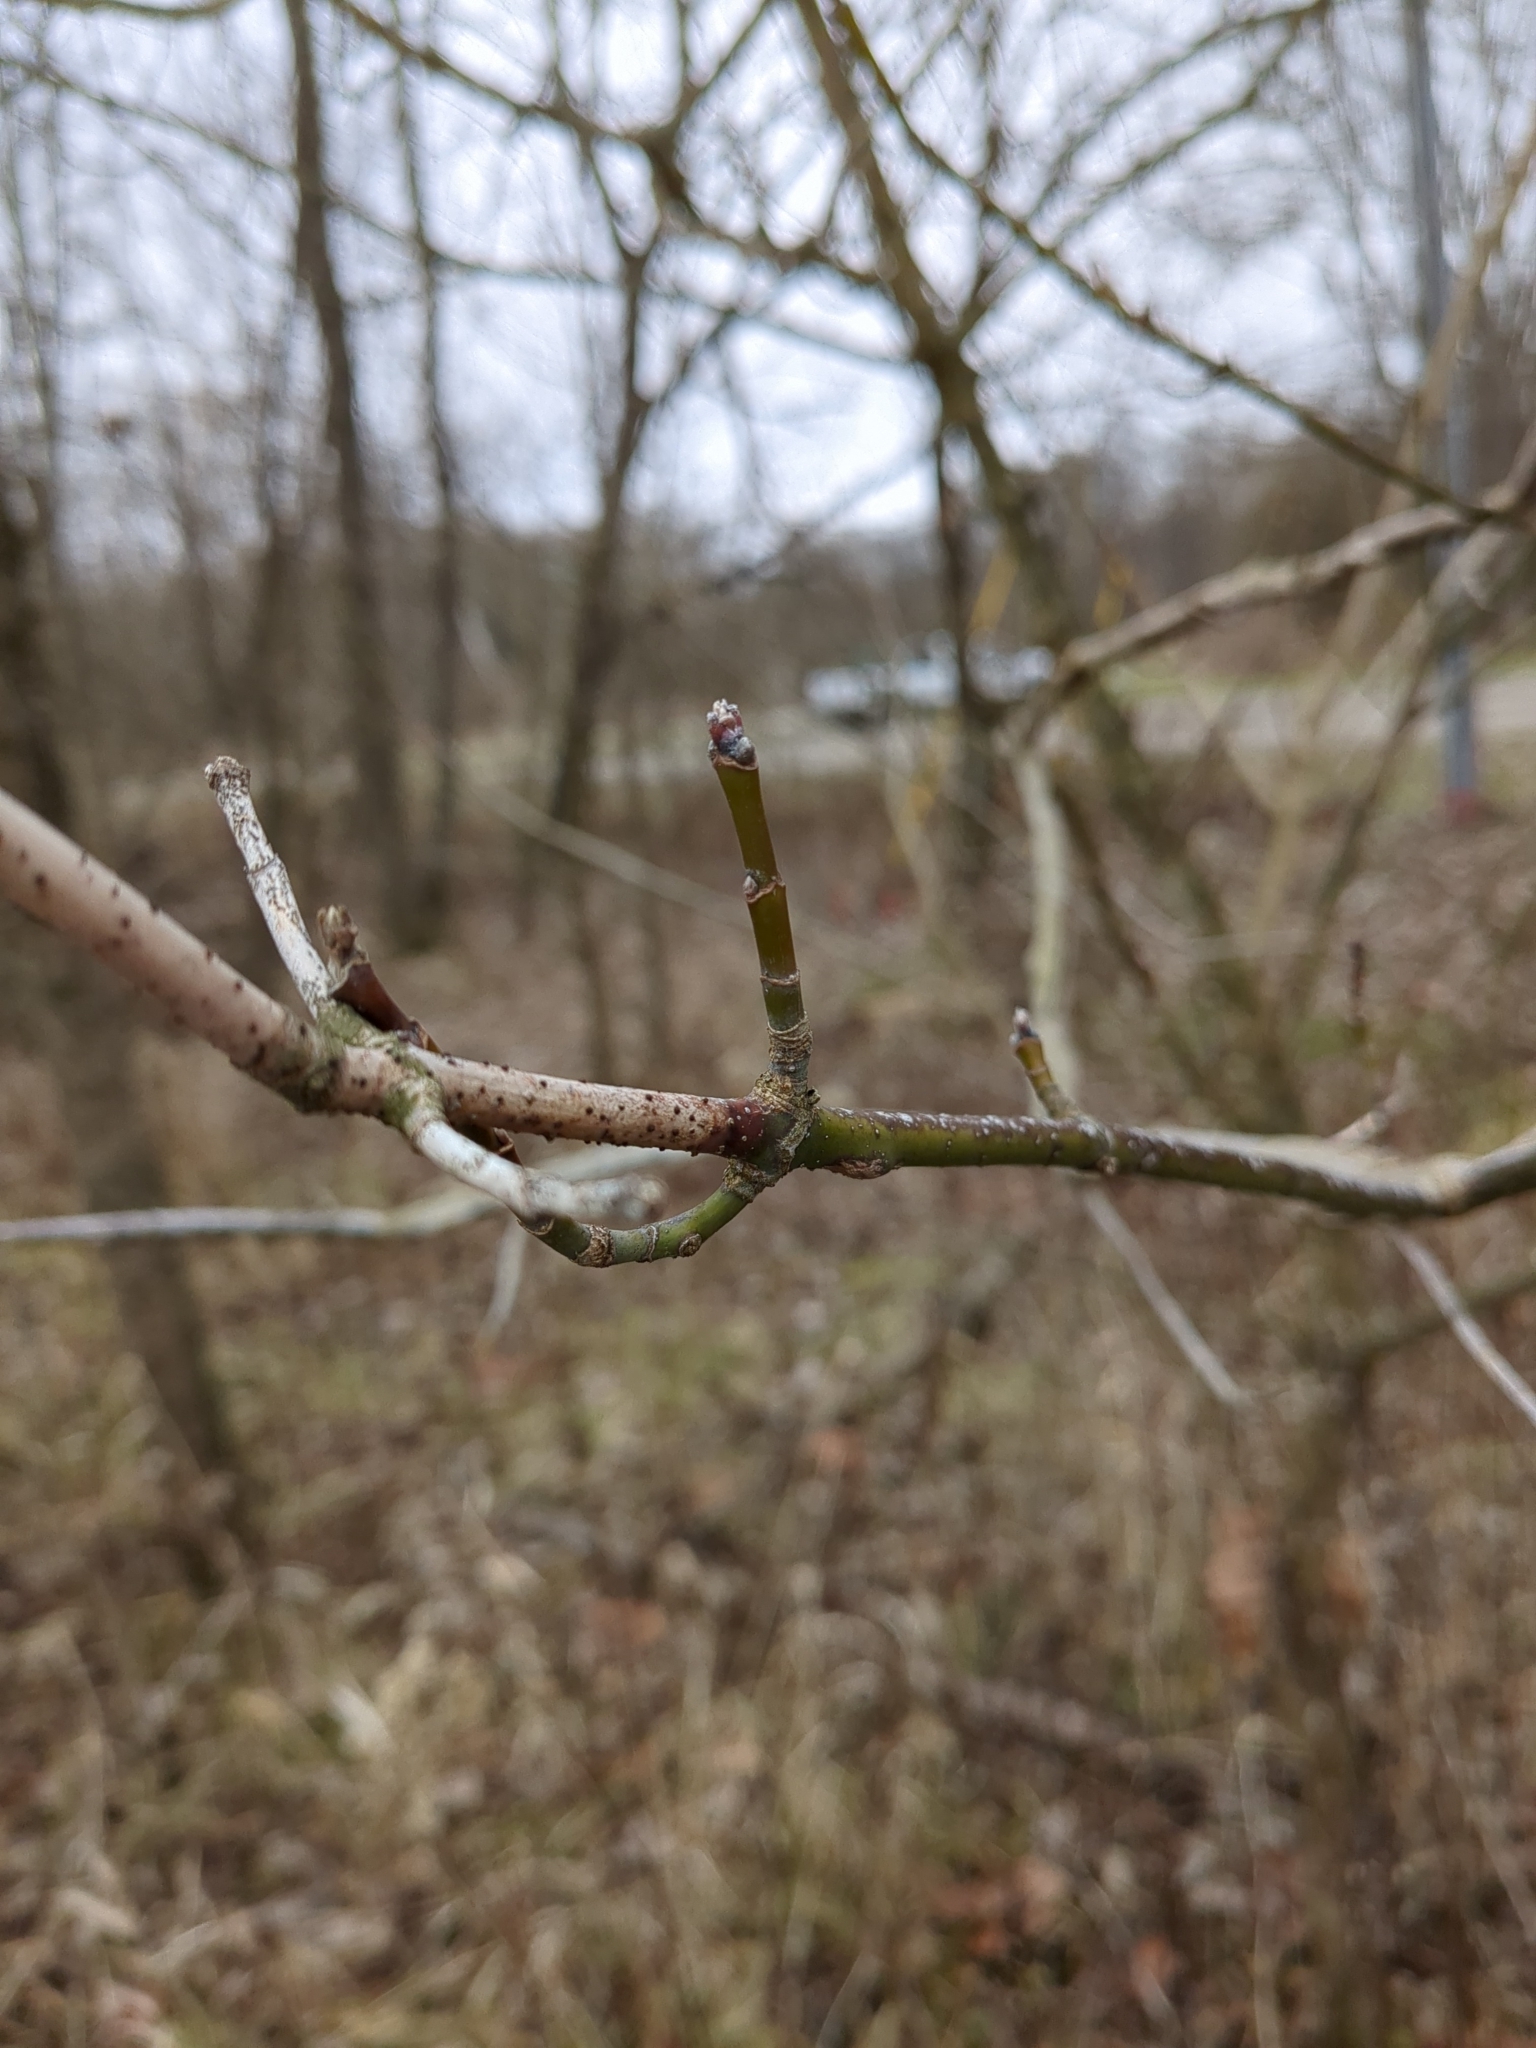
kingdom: Plantae
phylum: Tracheophyta
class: Magnoliopsida
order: Sapindales
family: Sapindaceae
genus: Acer
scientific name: Acer negundo
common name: Ashleaf maple
